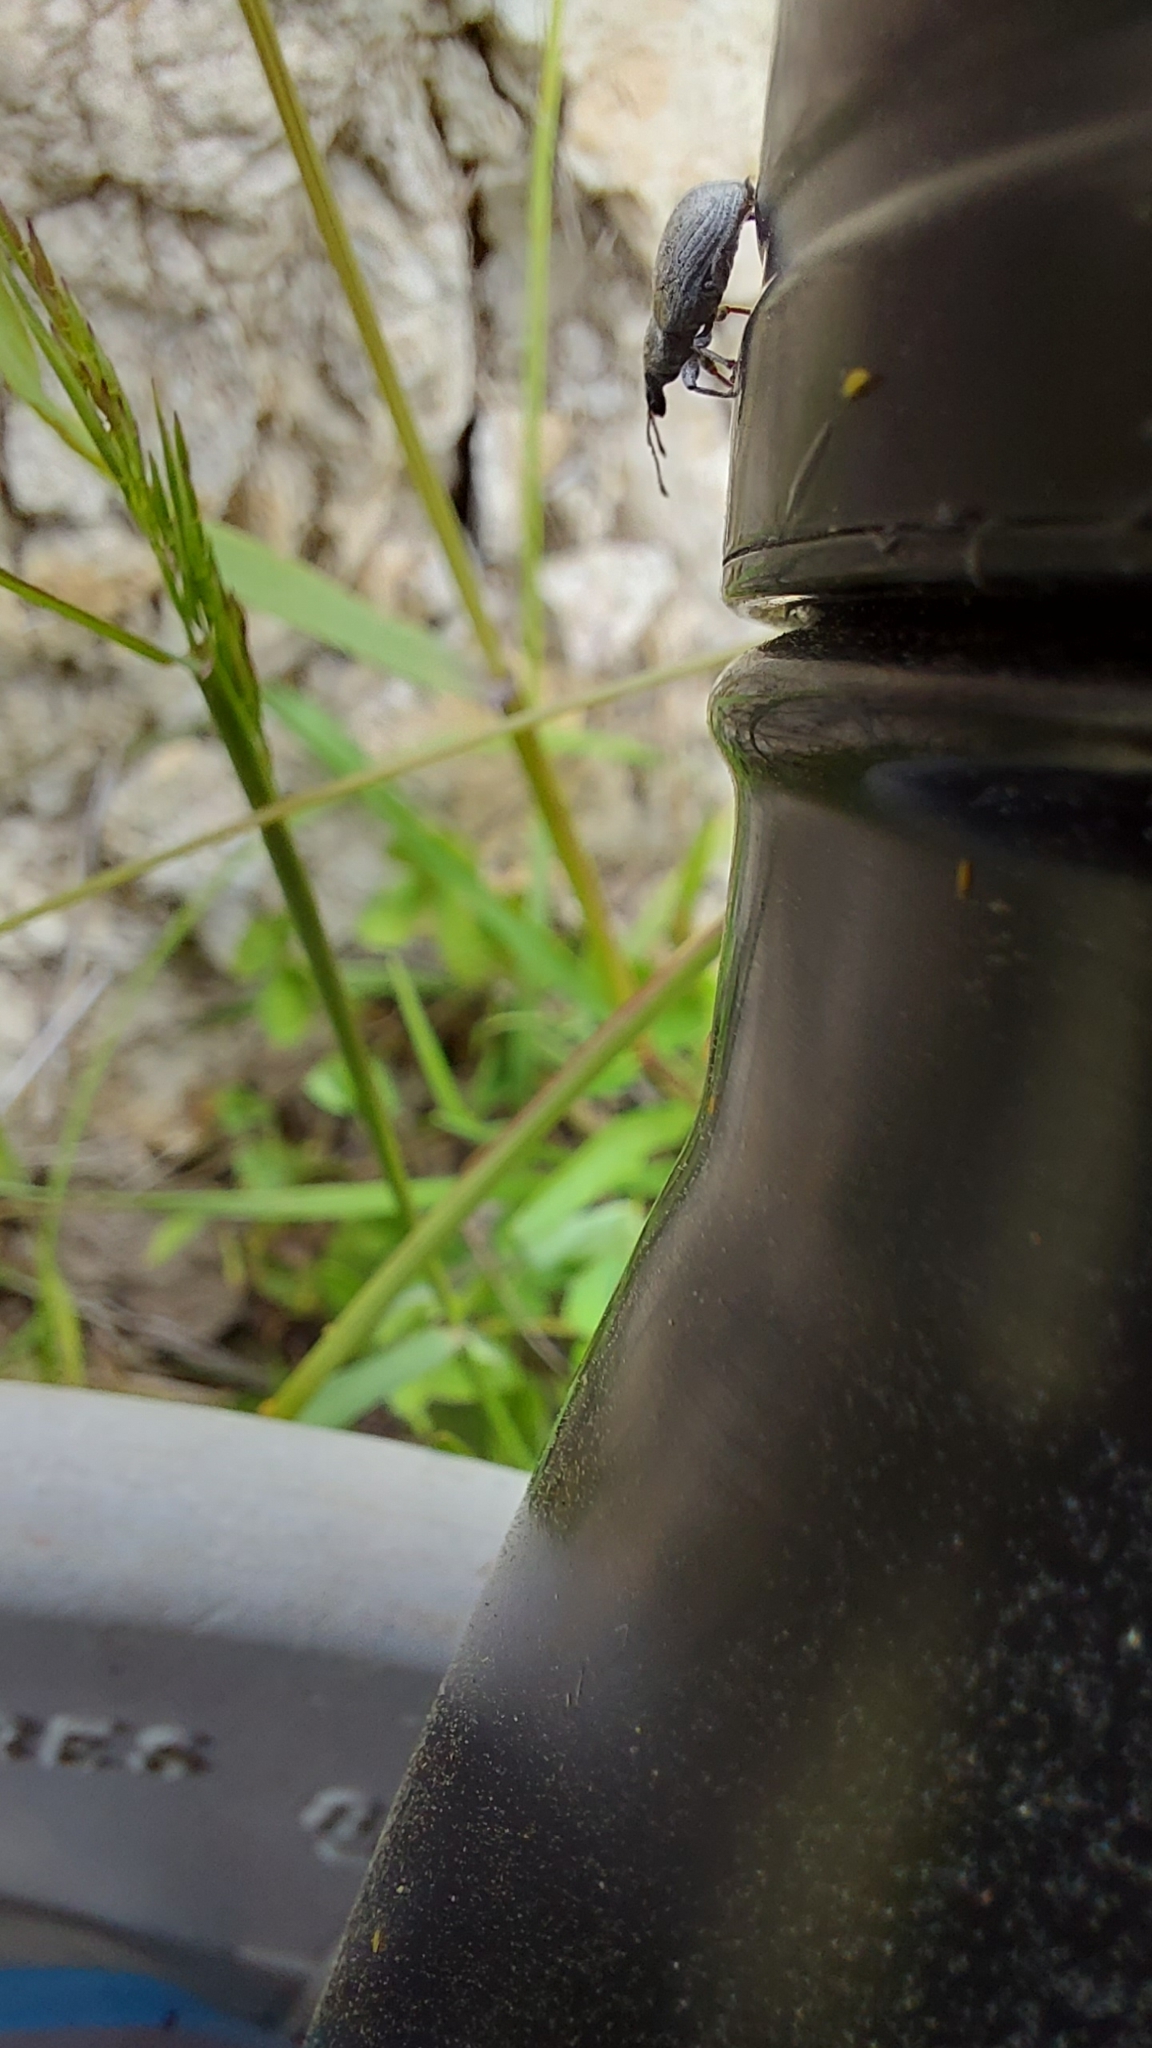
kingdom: Animalia
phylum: Arthropoda
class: Insecta
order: Coleoptera
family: Curculionidae
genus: Nonnotus
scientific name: Nonnotus albicans
